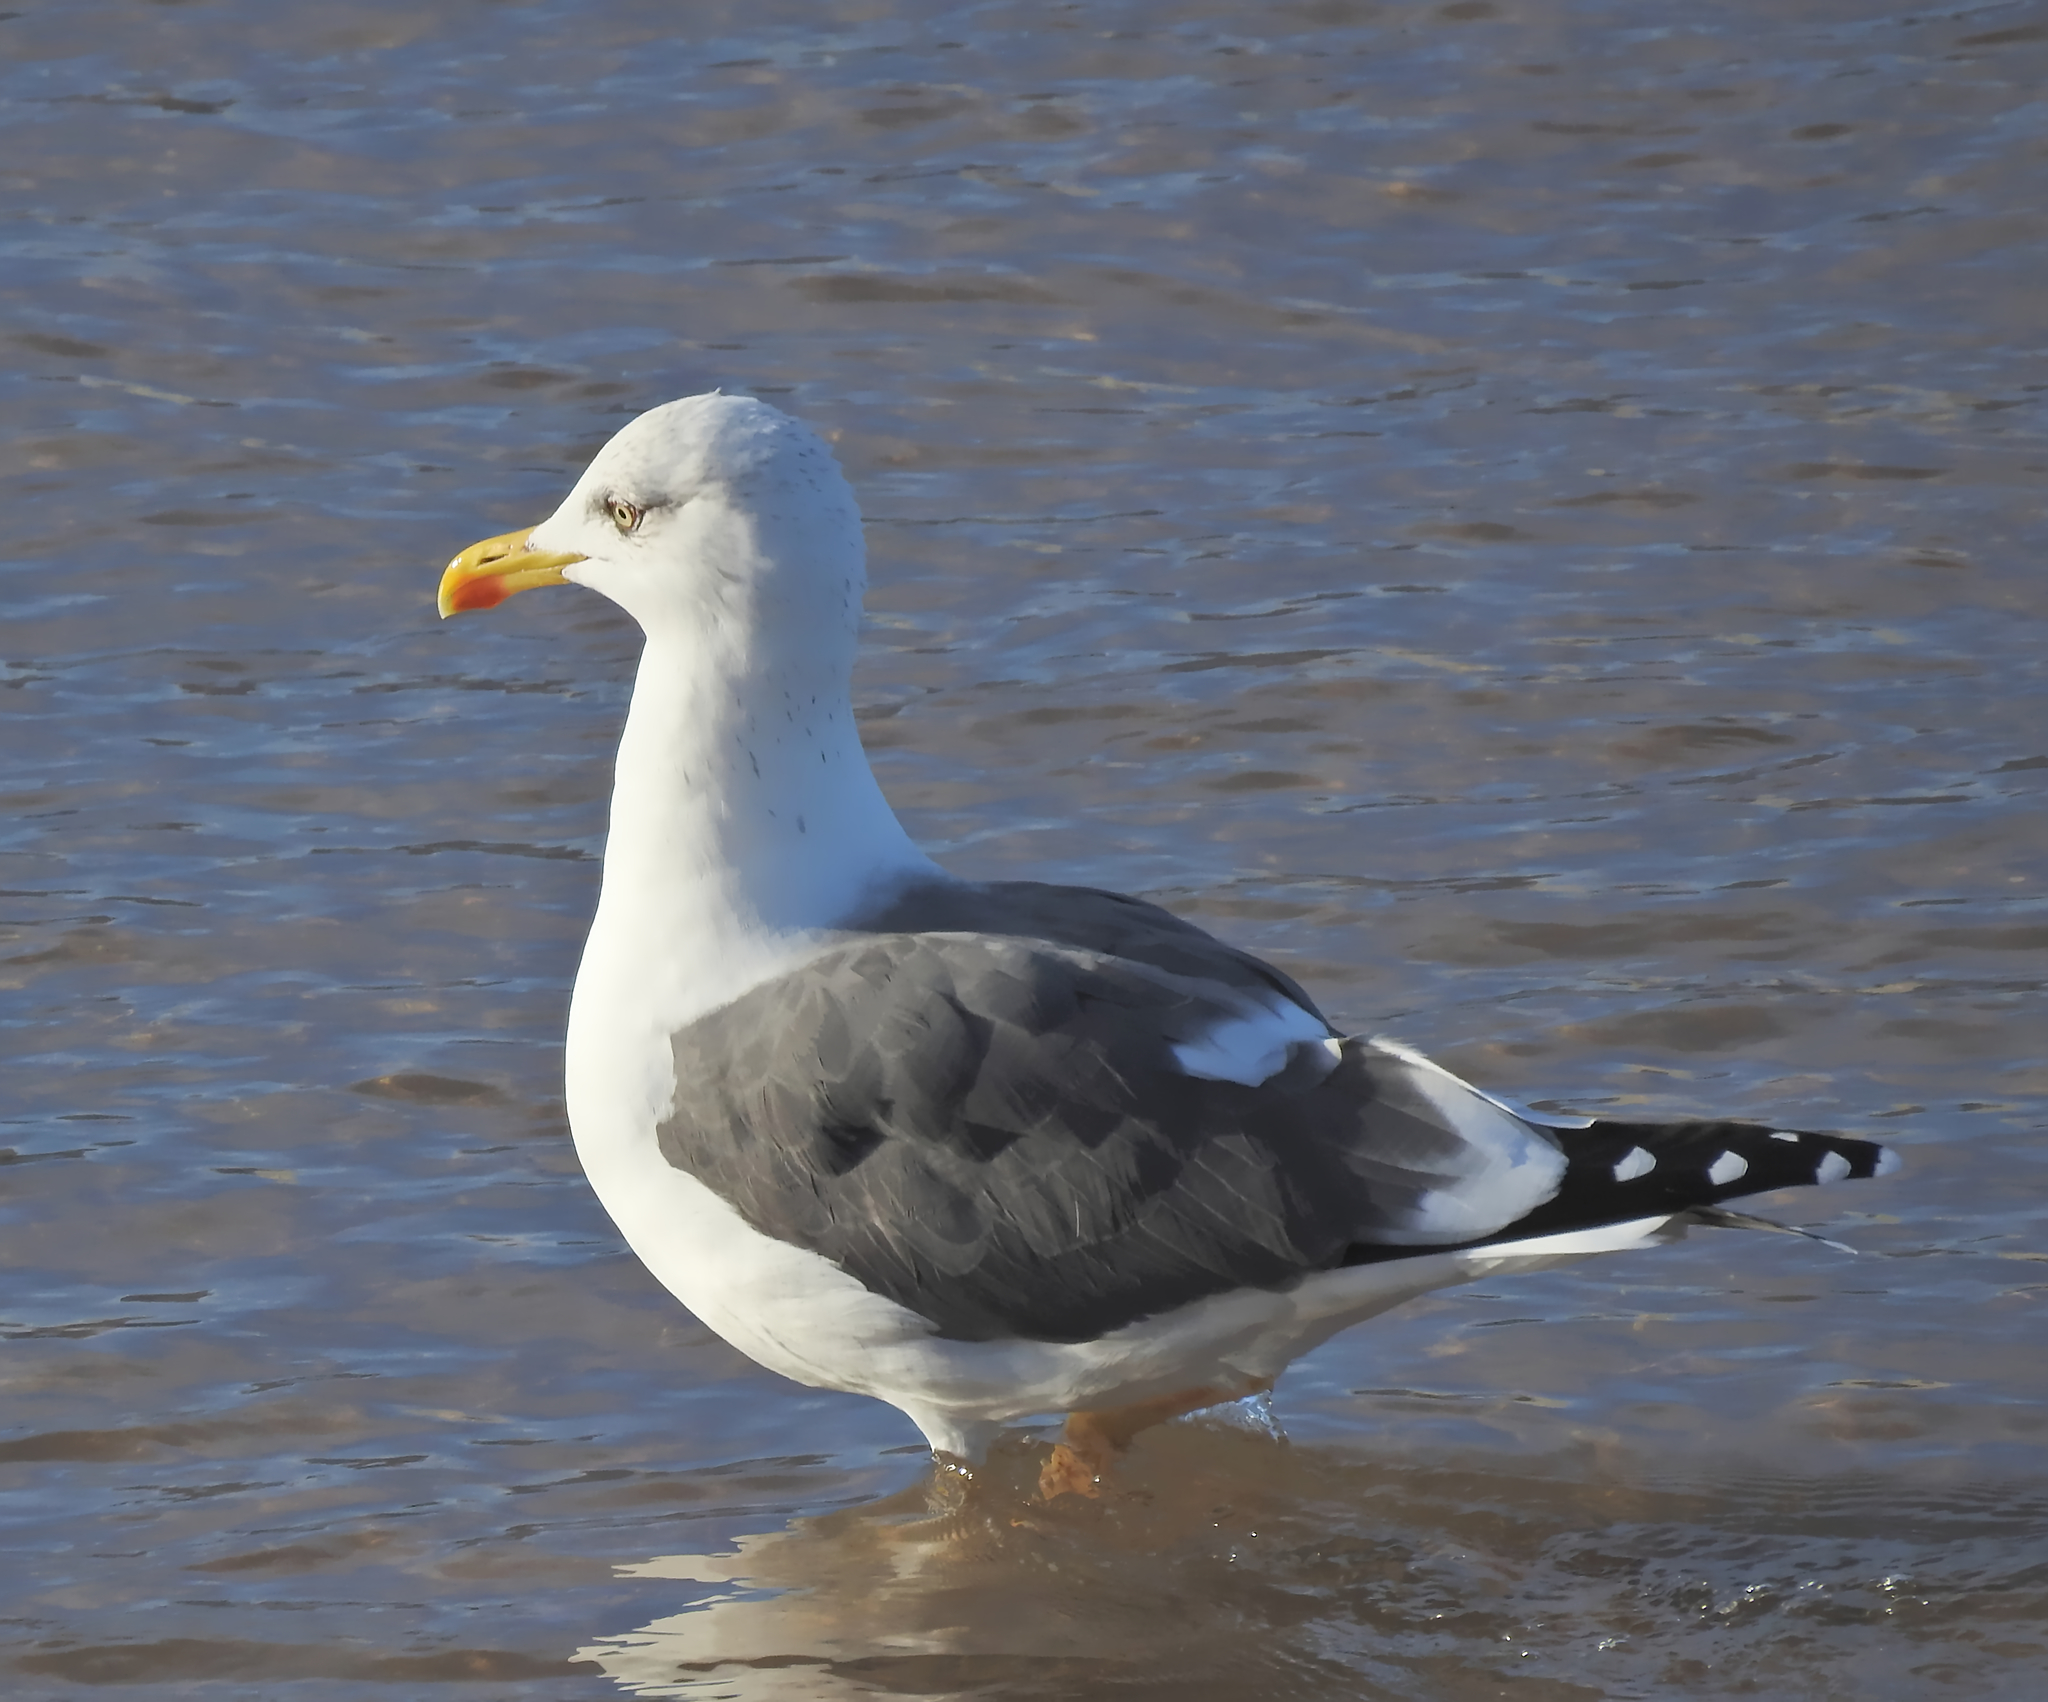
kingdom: Animalia
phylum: Chordata
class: Aves
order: Charadriiformes
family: Laridae
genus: Larus
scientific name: Larus fuscus
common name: Lesser black-backed gull
